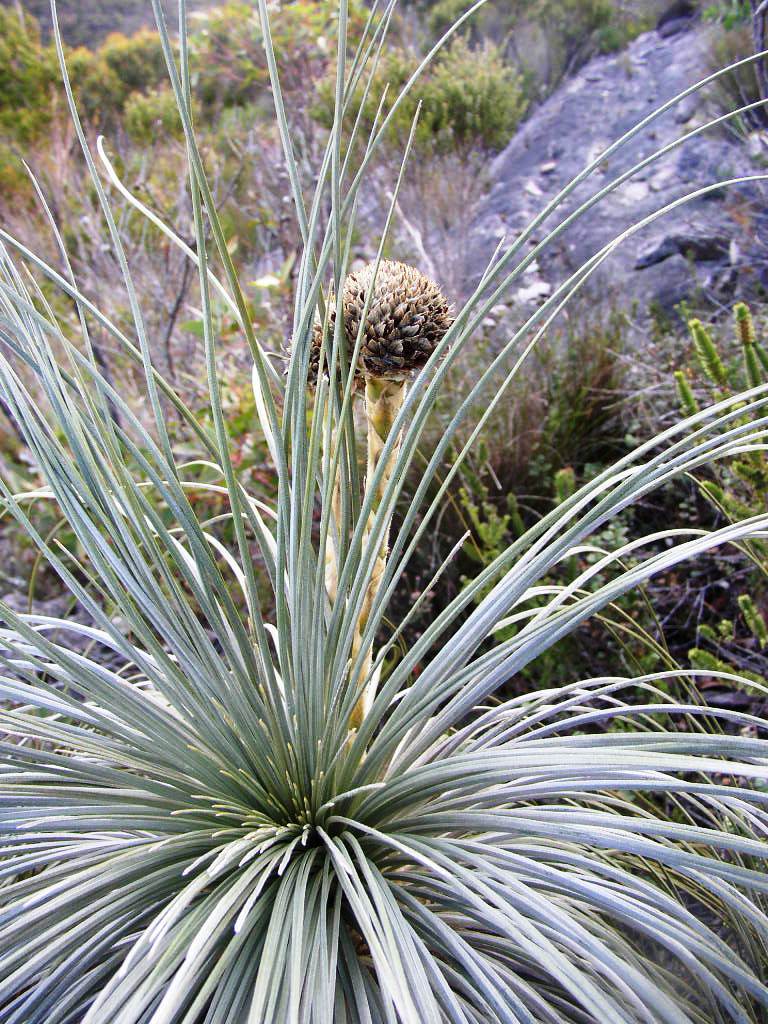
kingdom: Plantae
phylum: Tracheophyta
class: Liliopsida
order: Arecales
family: Dasypogonaceae
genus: Kingia
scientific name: Kingia australis
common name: Black gin
